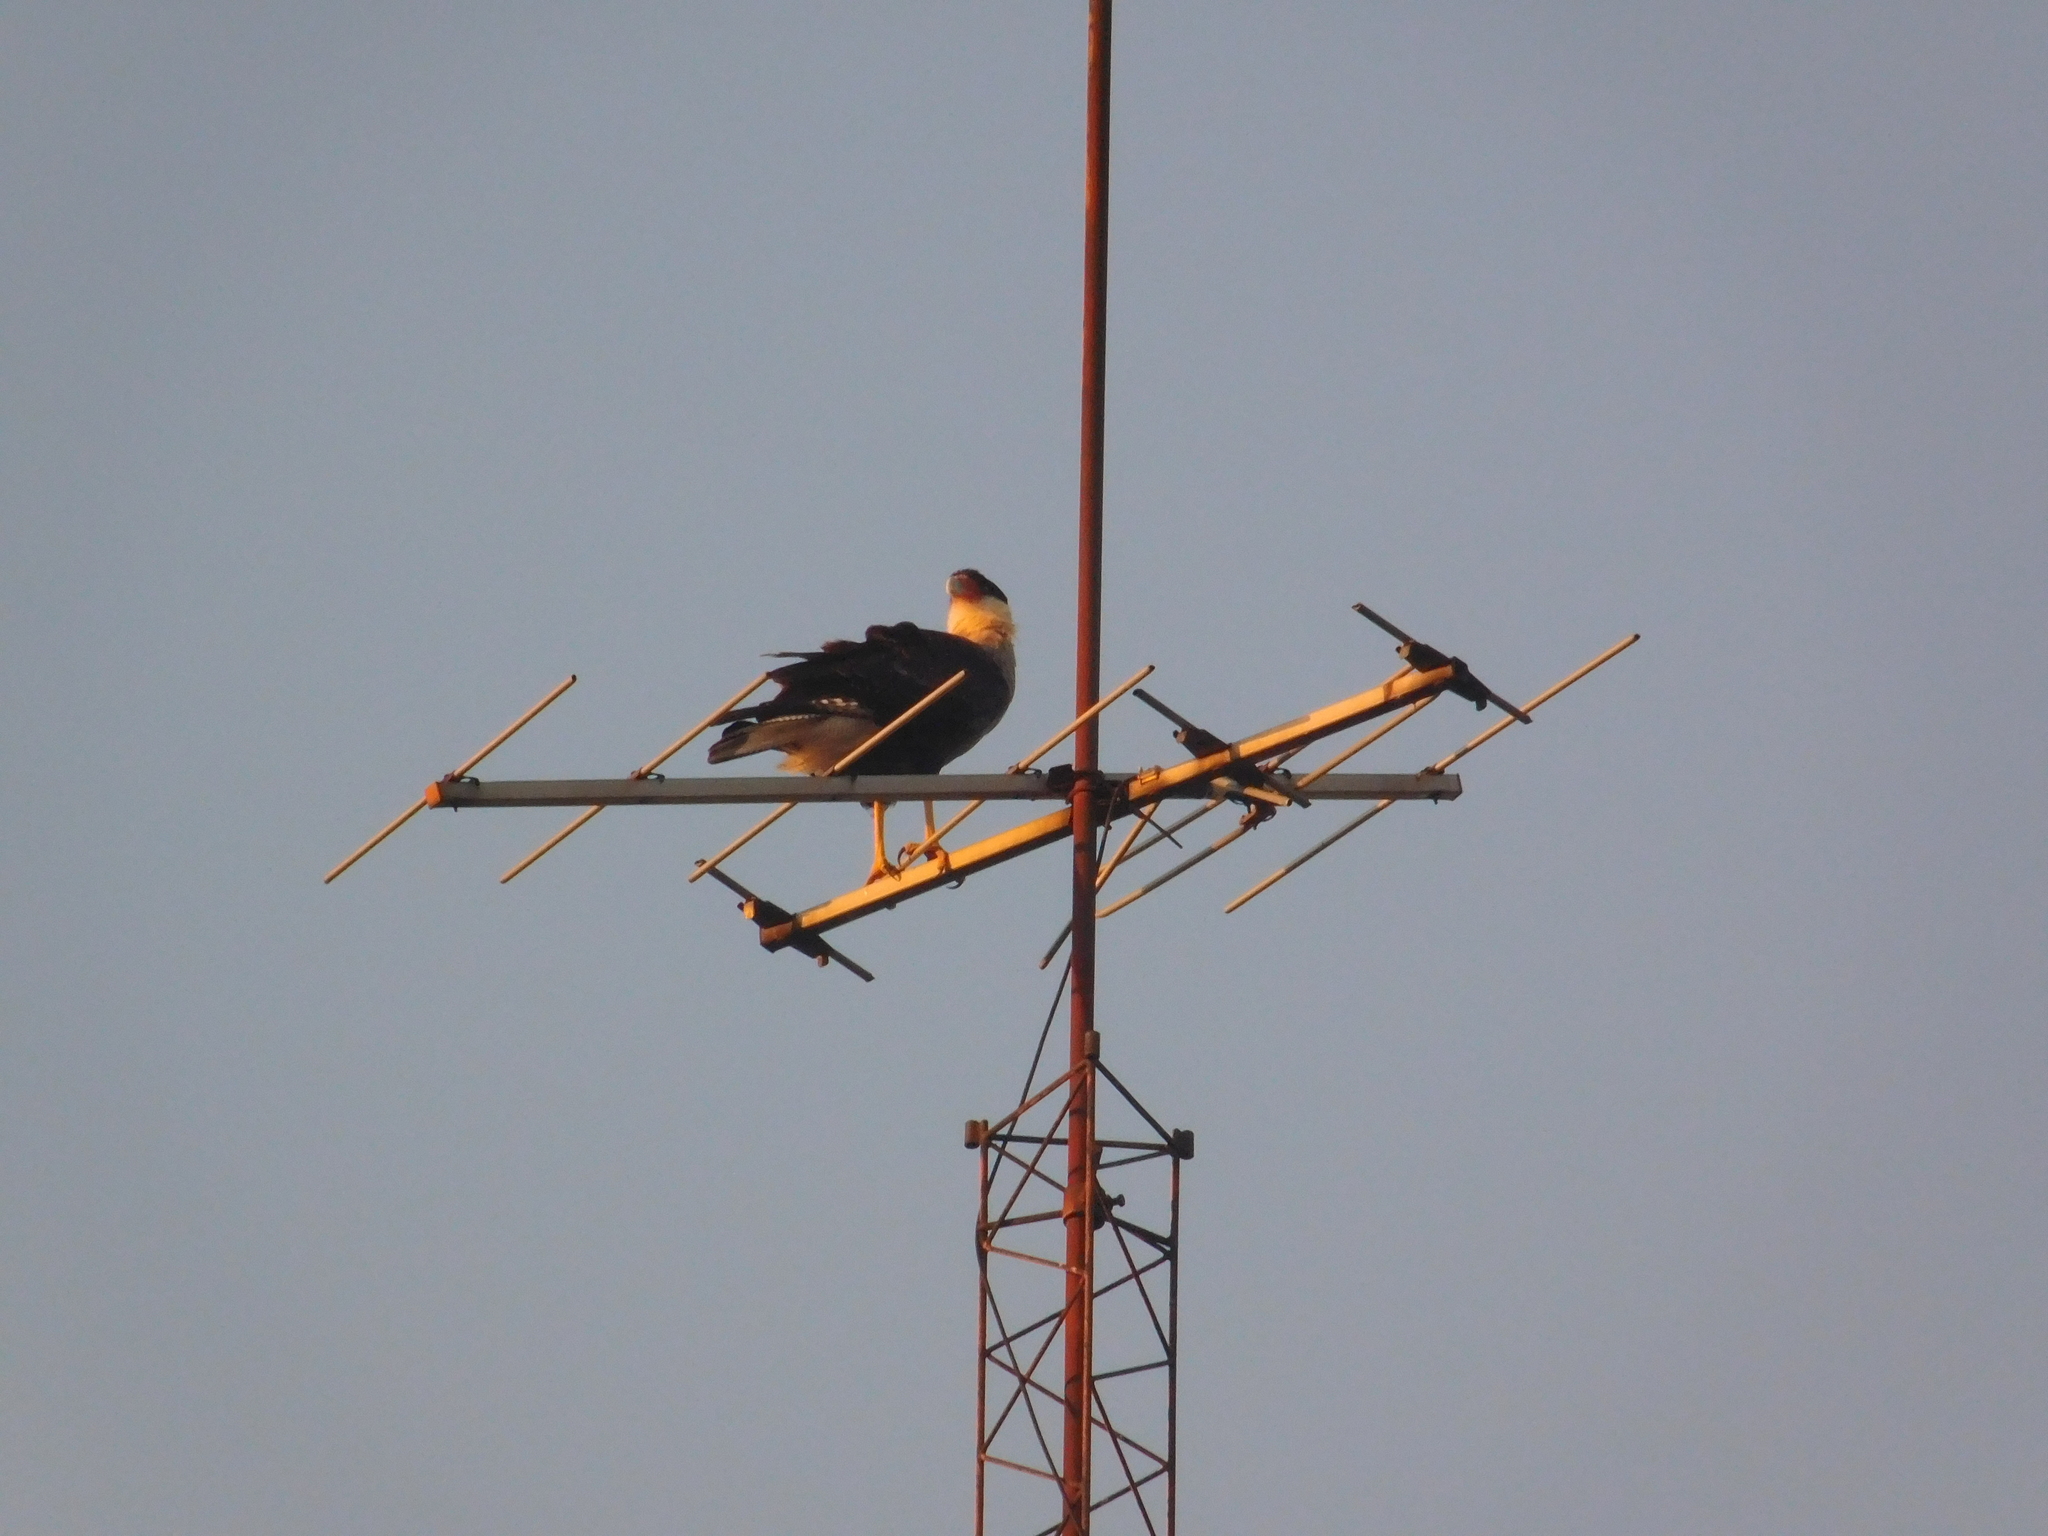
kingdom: Animalia
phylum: Chordata
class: Aves
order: Falconiformes
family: Falconidae
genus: Caracara
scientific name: Caracara plancus
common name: Southern caracara
